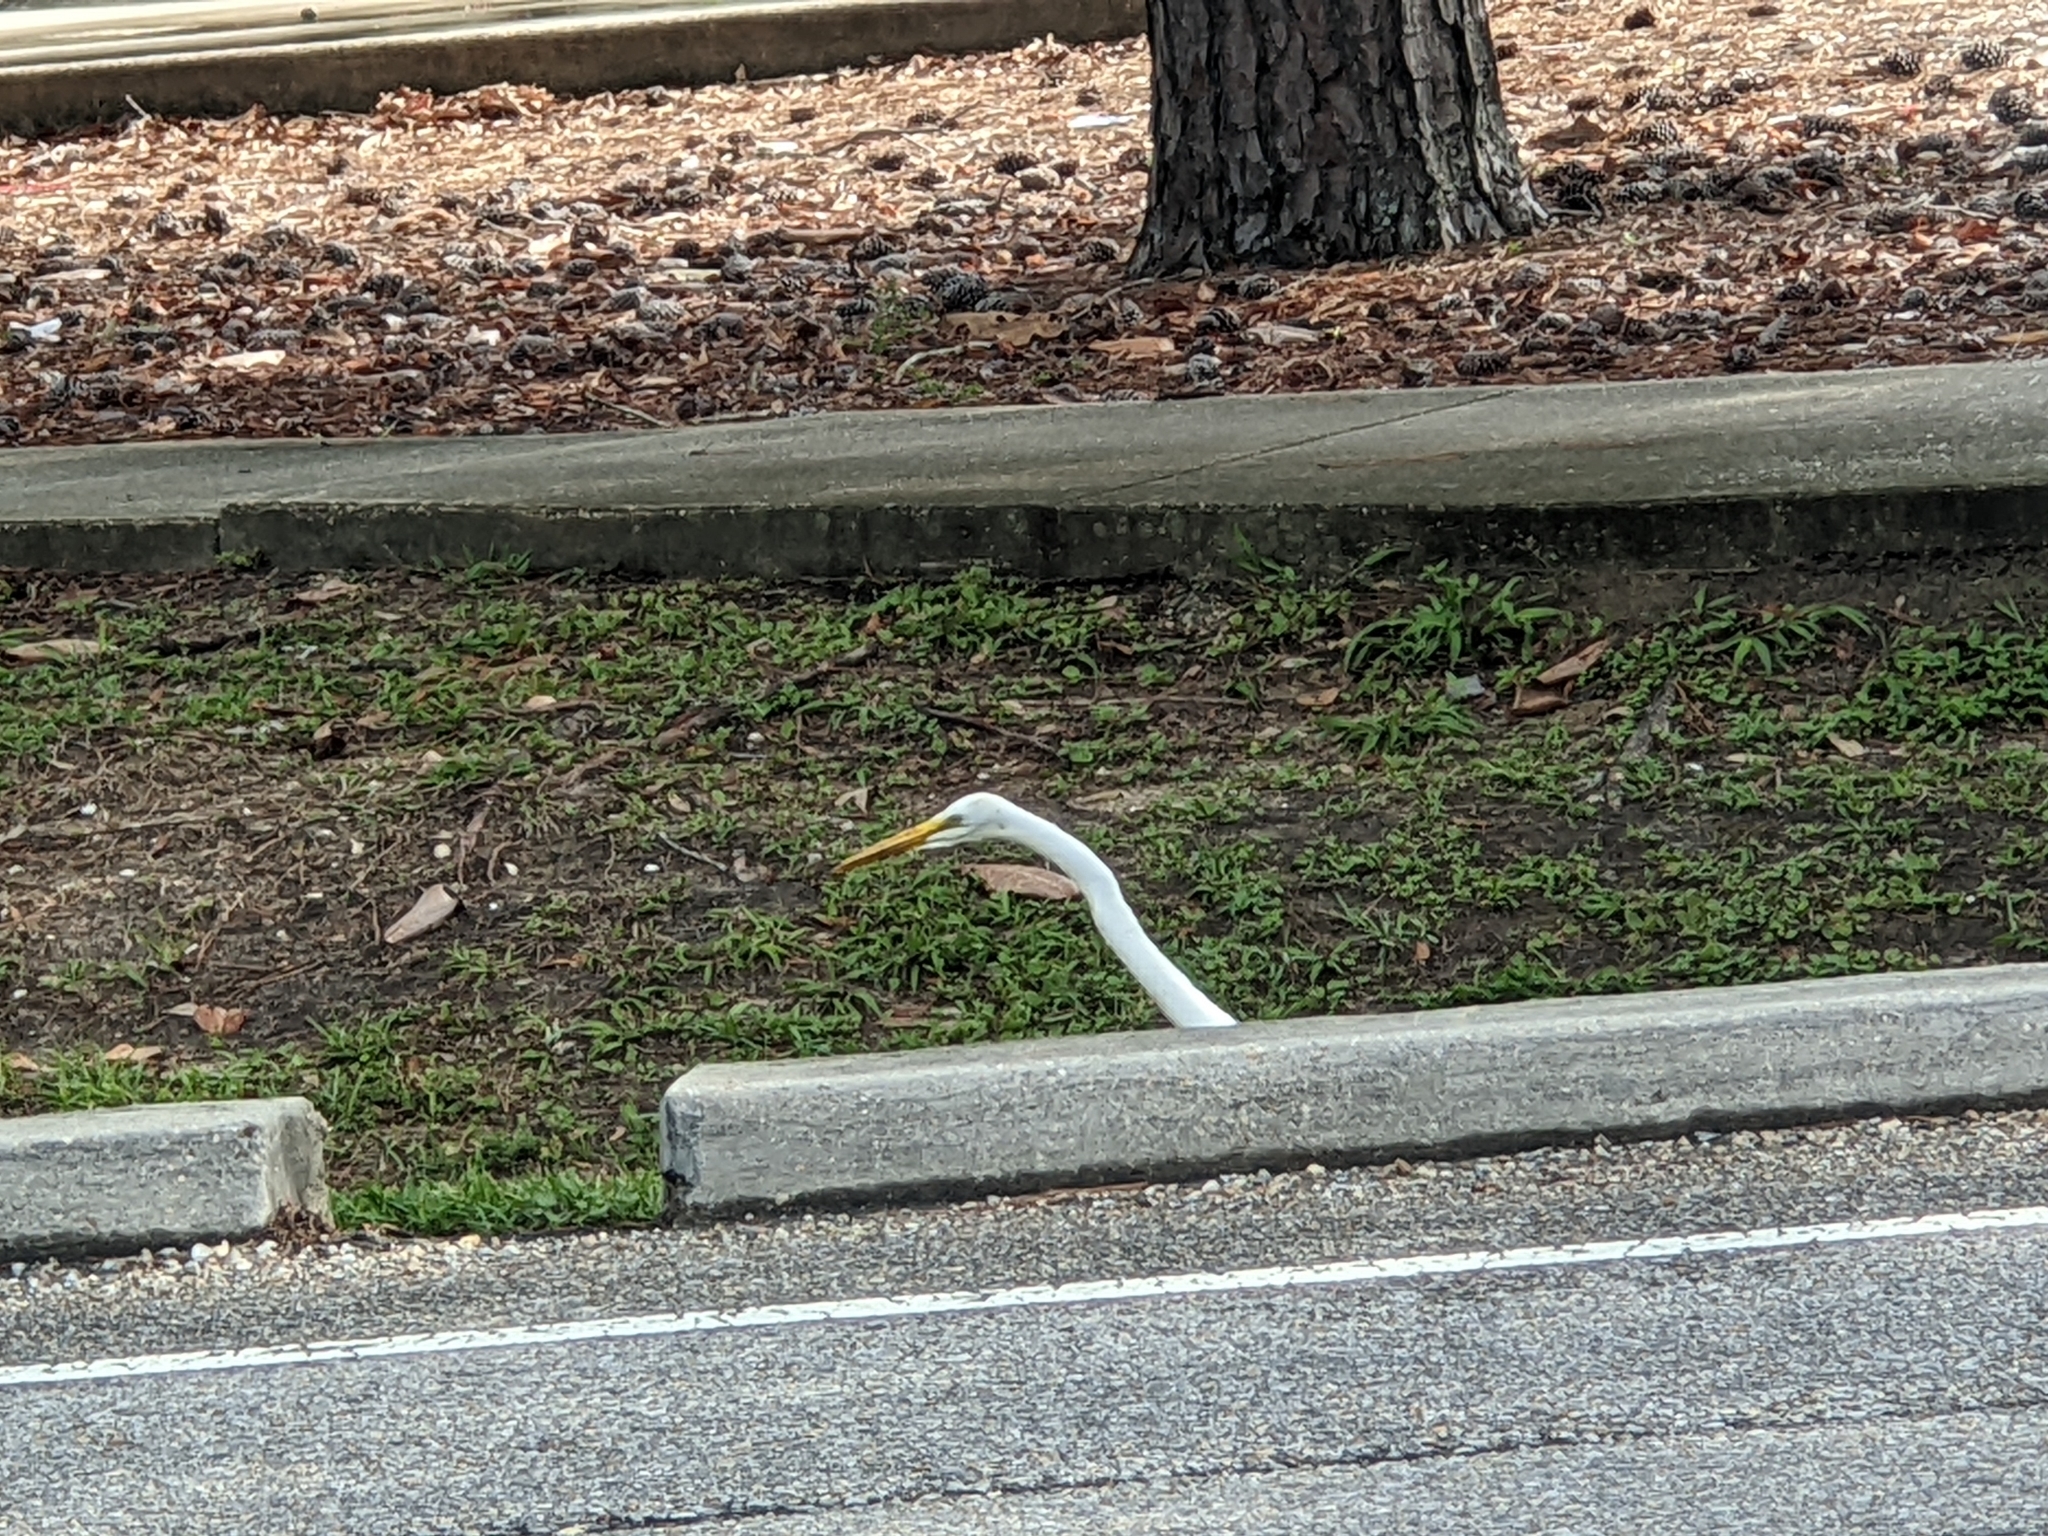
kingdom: Animalia
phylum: Chordata
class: Aves
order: Pelecaniformes
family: Ardeidae
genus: Ardea
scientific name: Ardea alba
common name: Great egret
